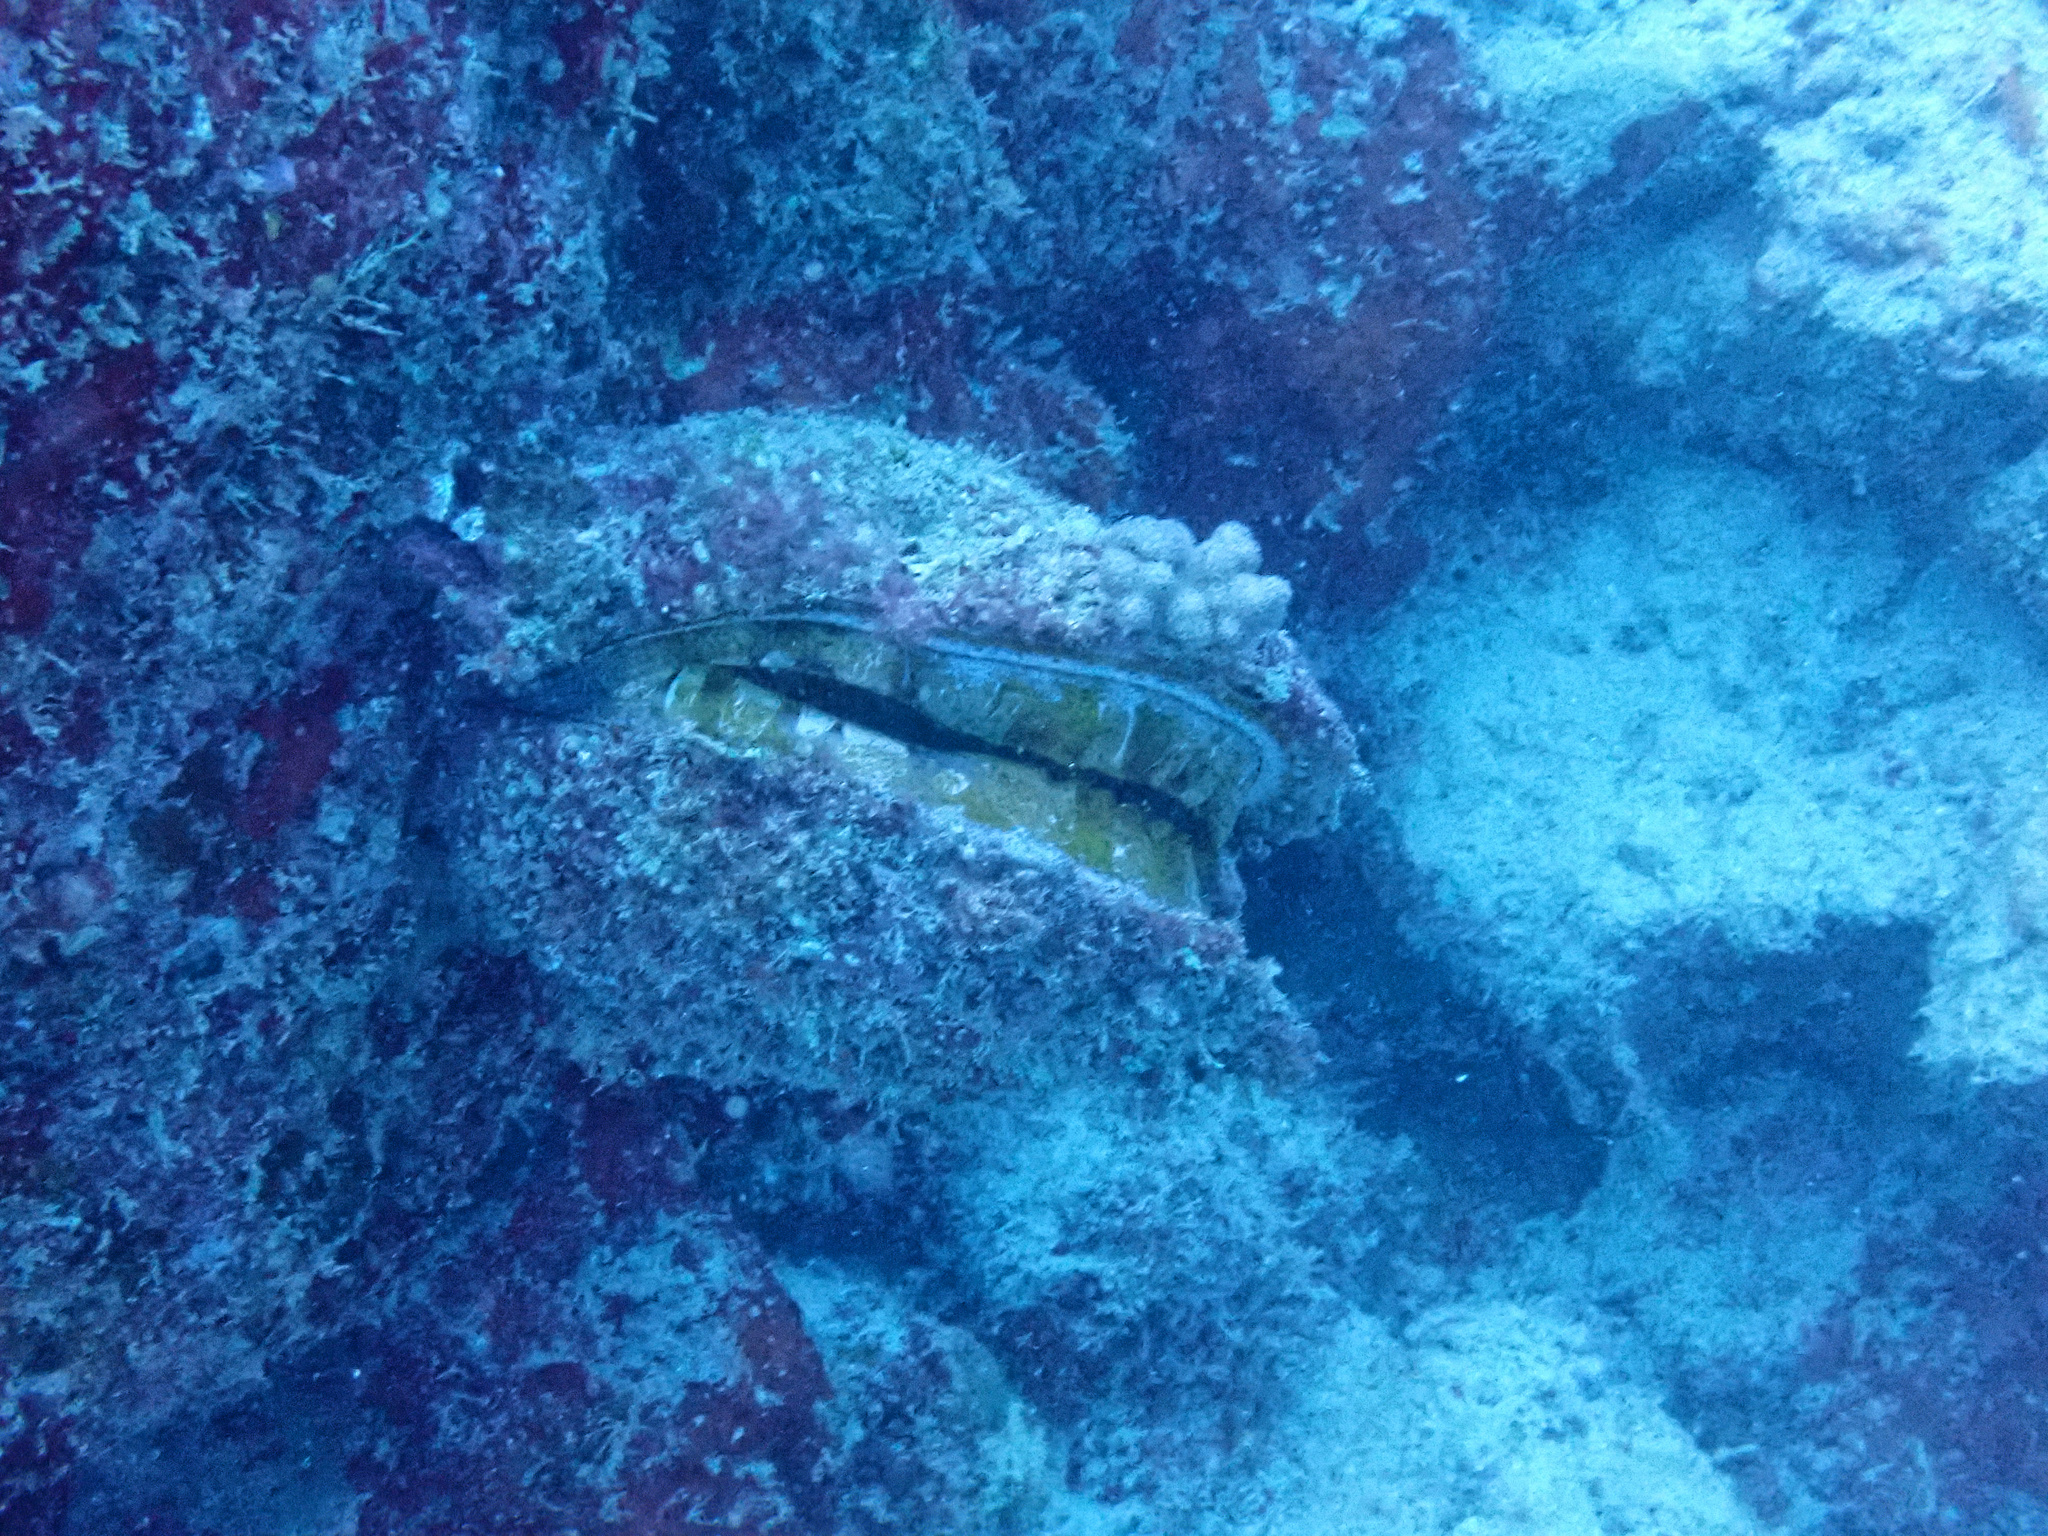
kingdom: Animalia
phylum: Mollusca
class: Bivalvia
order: Pectinida
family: Spondylidae
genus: Spondylus
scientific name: Spondylus varius
